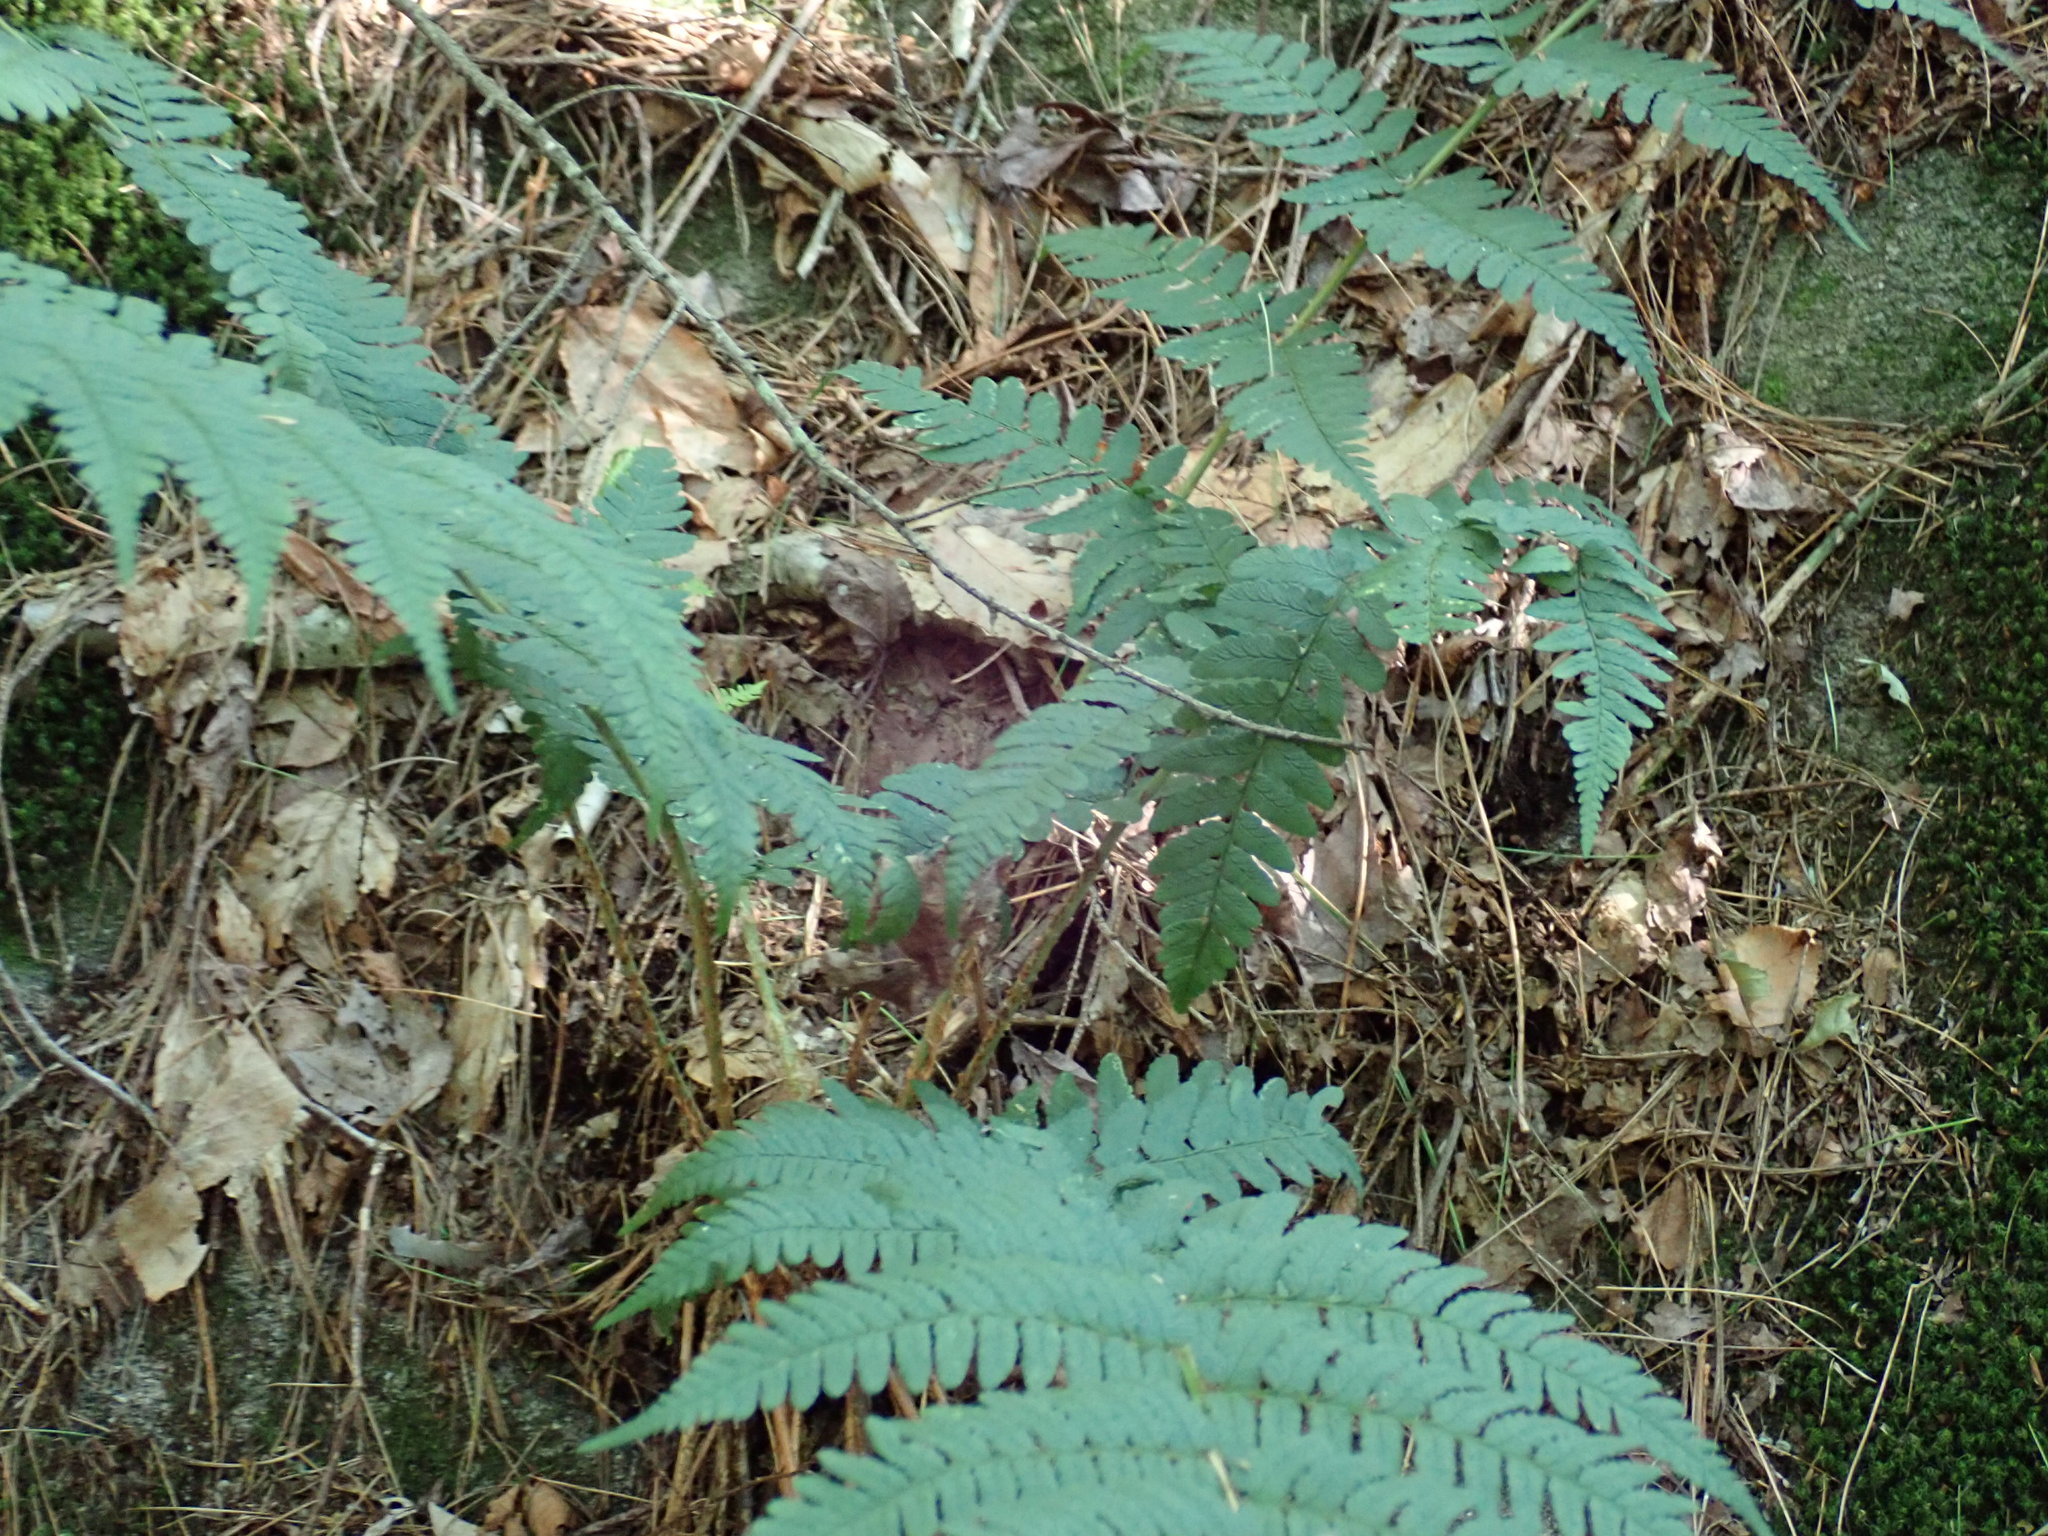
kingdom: Plantae
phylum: Tracheophyta
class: Polypodiopsida
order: Polypodiales
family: Dryopteridaceae
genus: Dryopteris
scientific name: Dryopteris marginalis
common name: Marginal wood fern
